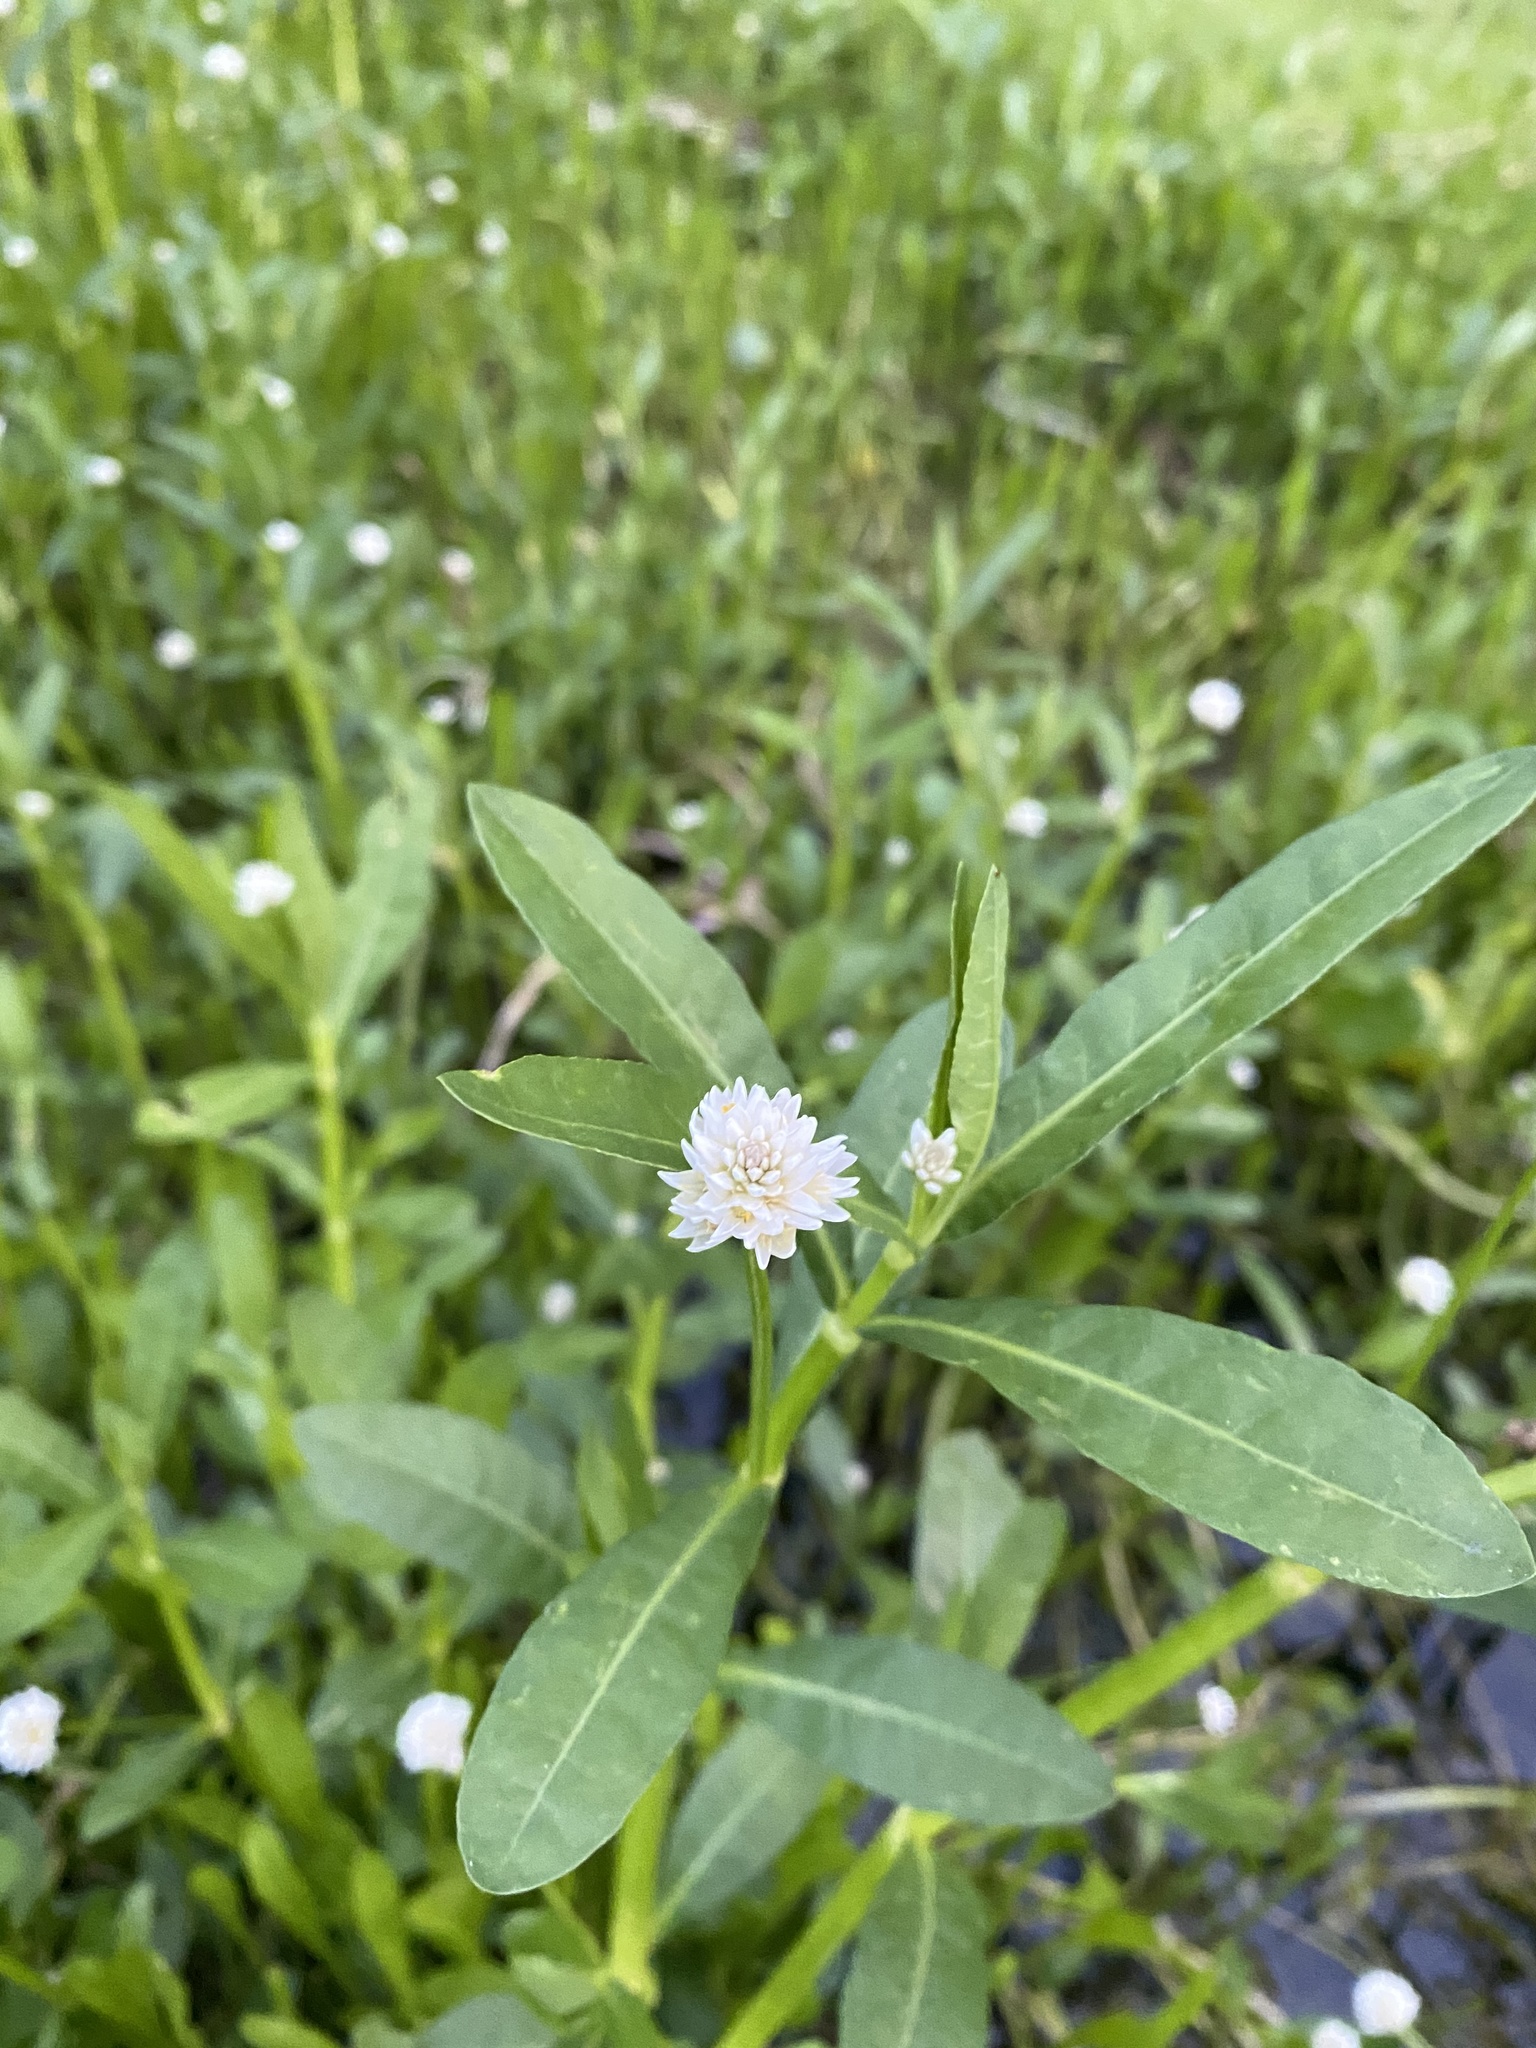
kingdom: Plantae
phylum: Tracheophyta
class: Magnoliopsida
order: Caryophyllales
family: Amaranthaceae
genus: Alternanthera
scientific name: Alternanthera philoxeroides
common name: Alligatorweed
